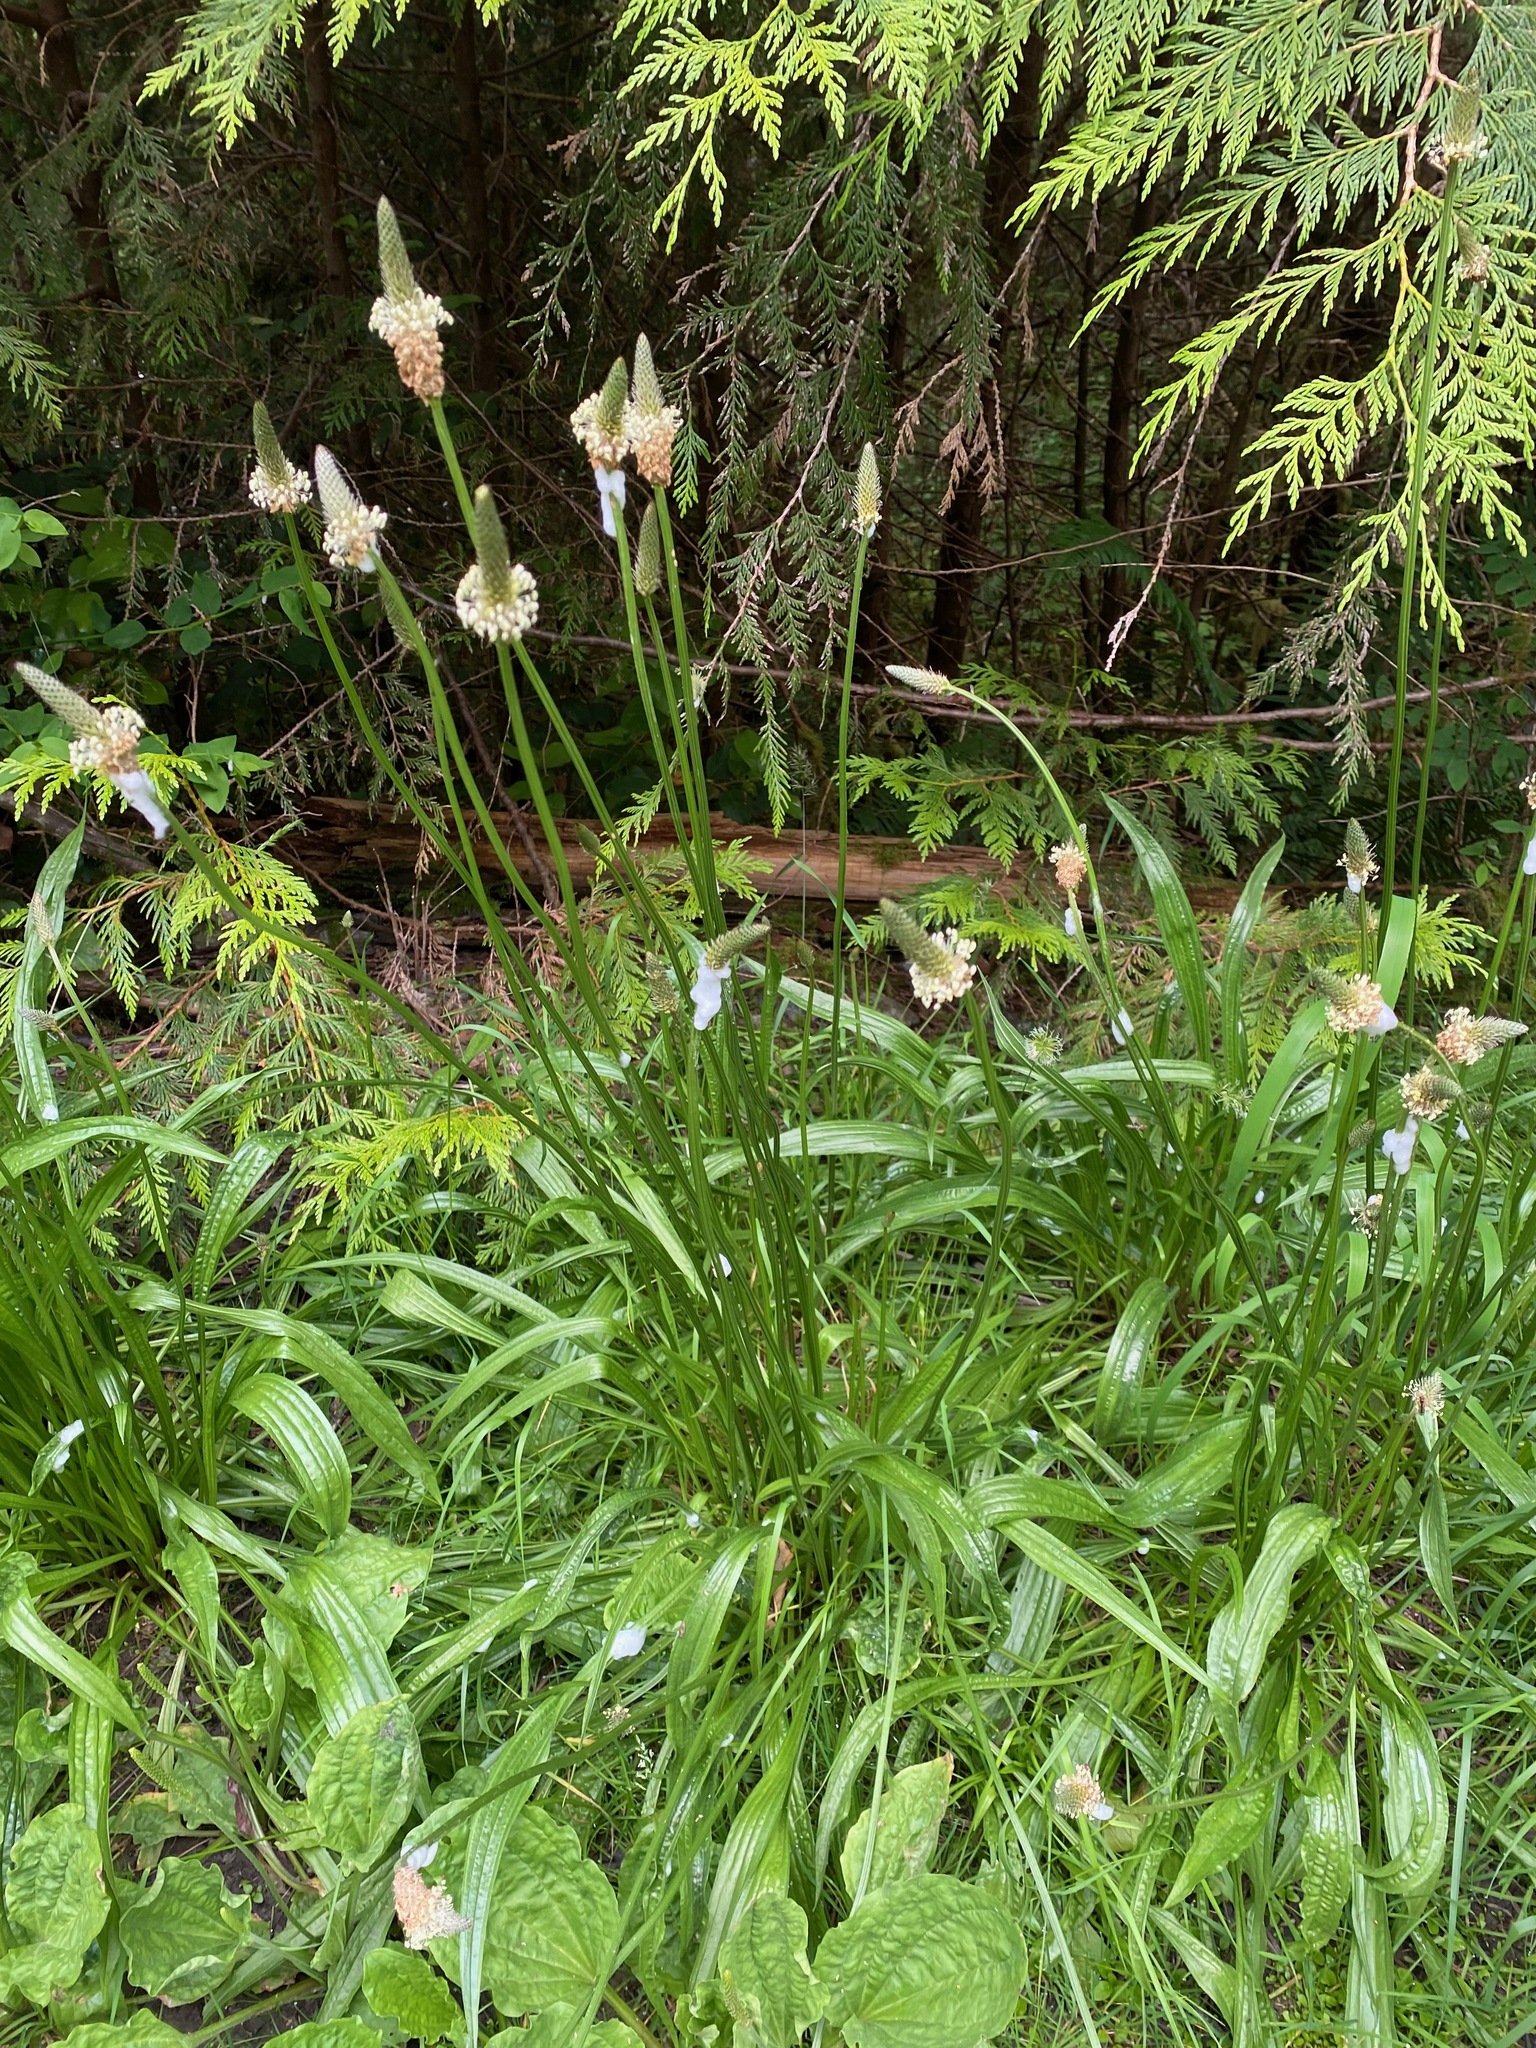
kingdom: Plantae
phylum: Tracheophyta
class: Magnoliopsida
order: Lamiales
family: Plantaginaceae
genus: Plantago
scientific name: Plantago lanceolata
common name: Ribwort plantain
